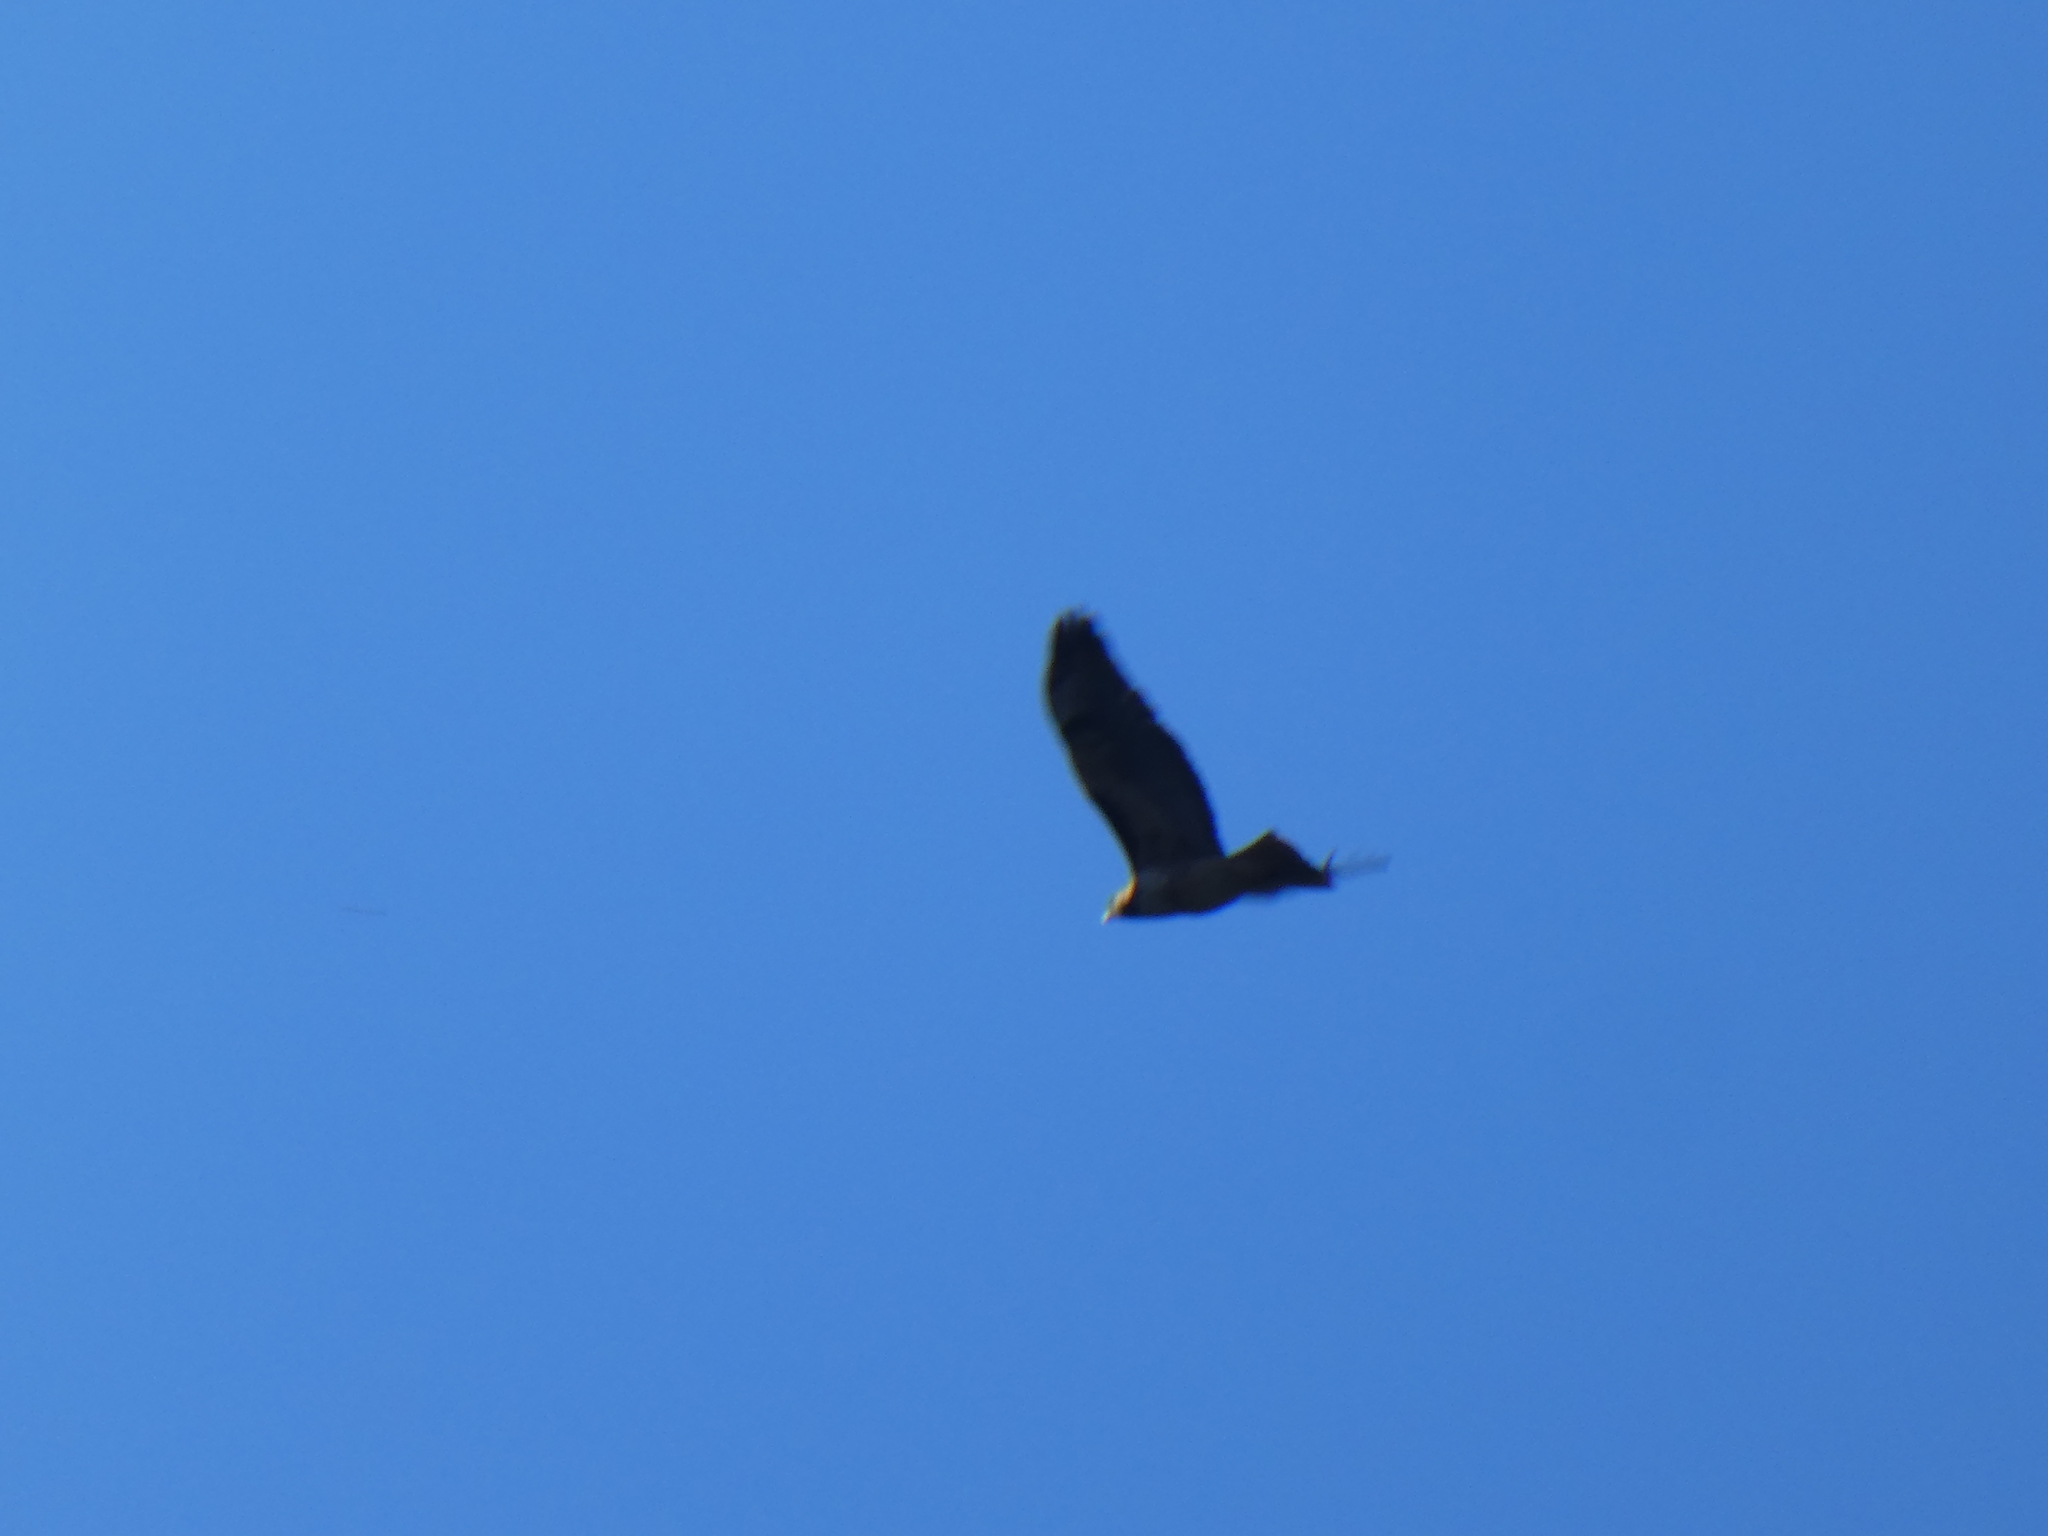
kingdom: Animalia
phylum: Chordata
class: Aves
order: Accipitriformes
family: Accipitridae
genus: Buteo
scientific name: Buteo jamaicensis
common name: Red-tailed hawk
